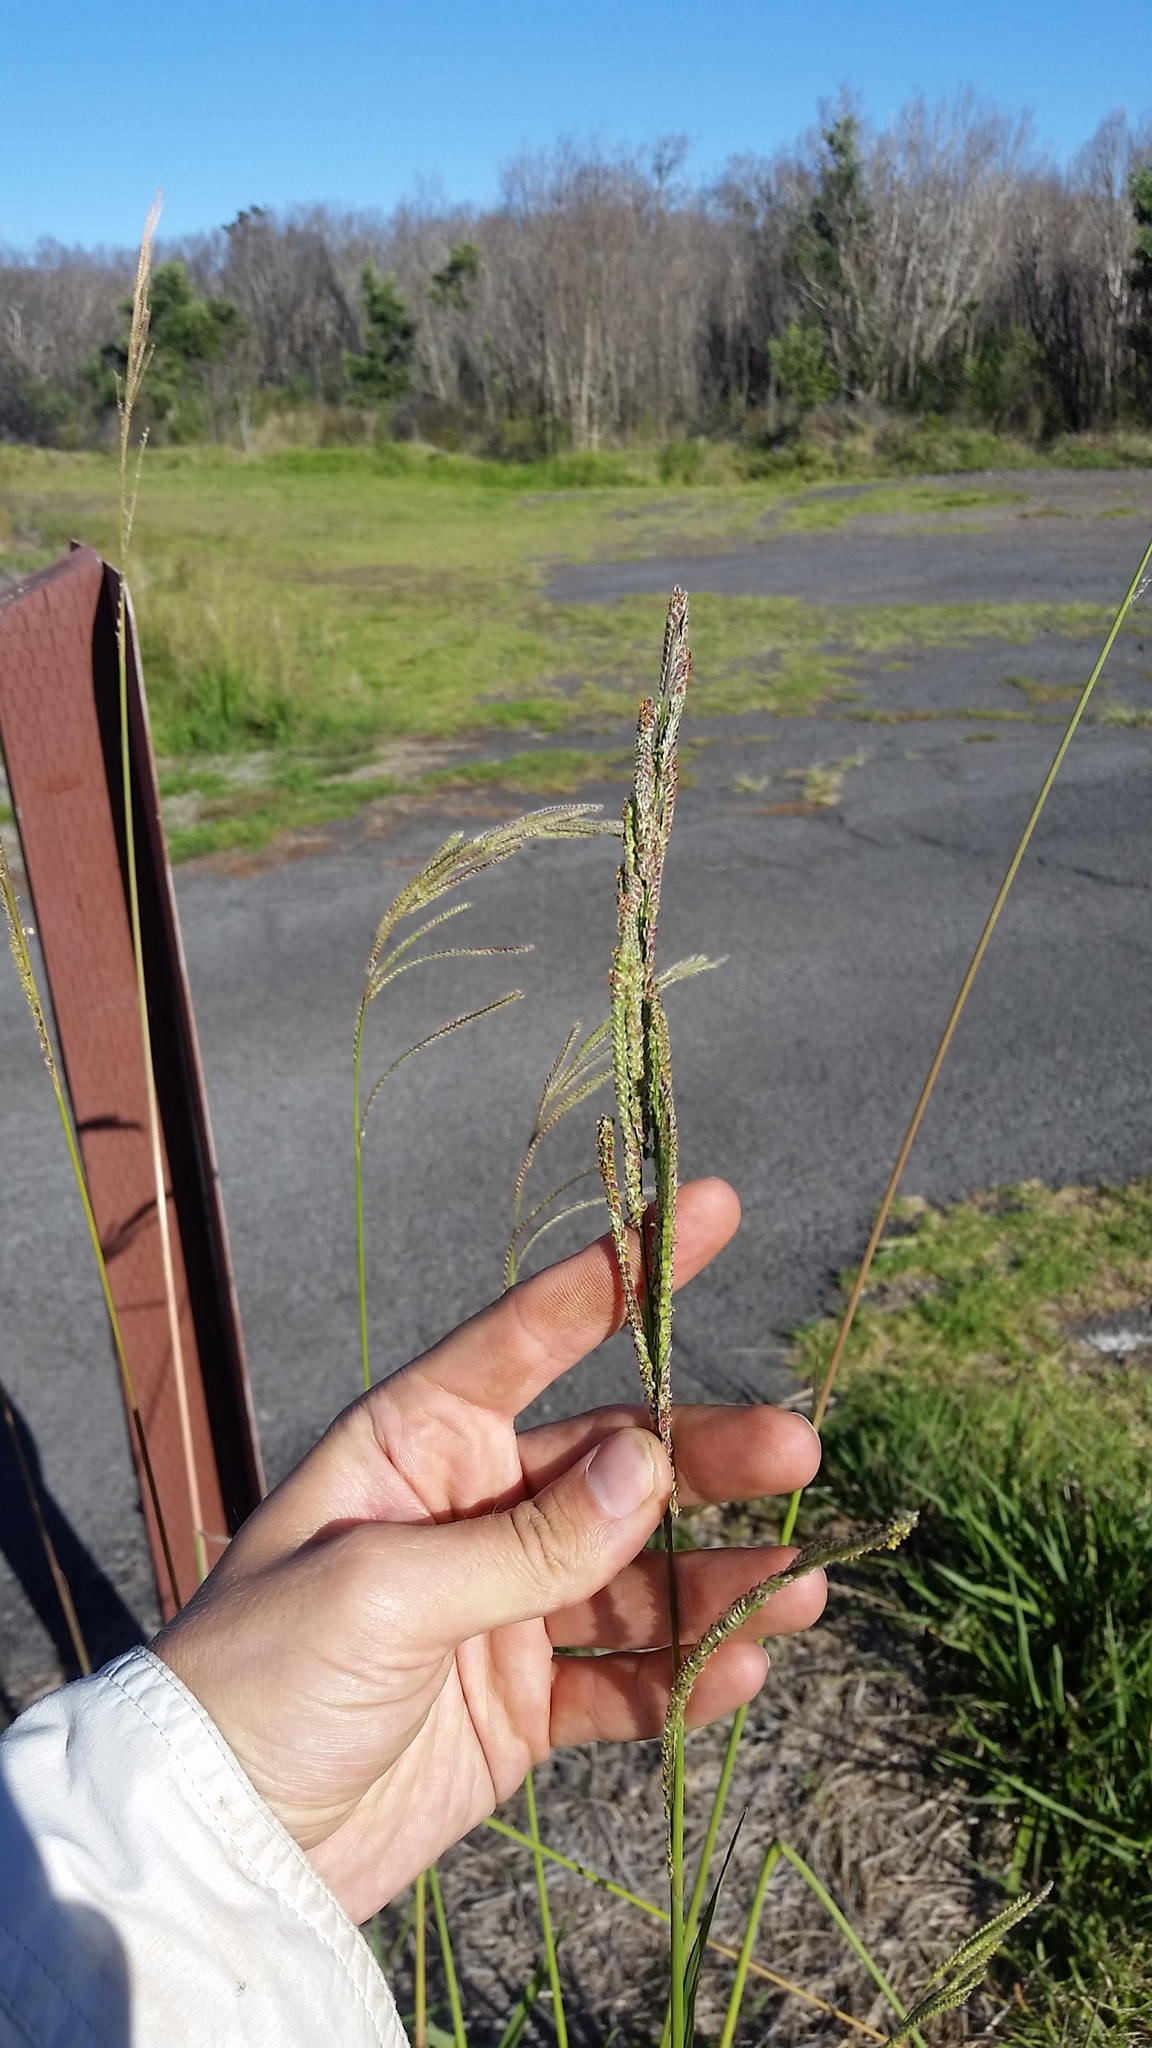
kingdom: Plantae
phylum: Tracheophyta
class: Liliopsida
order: Poales
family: Poaceae
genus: Paspalum
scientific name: Paspalum urvillei
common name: Vasey's grass
